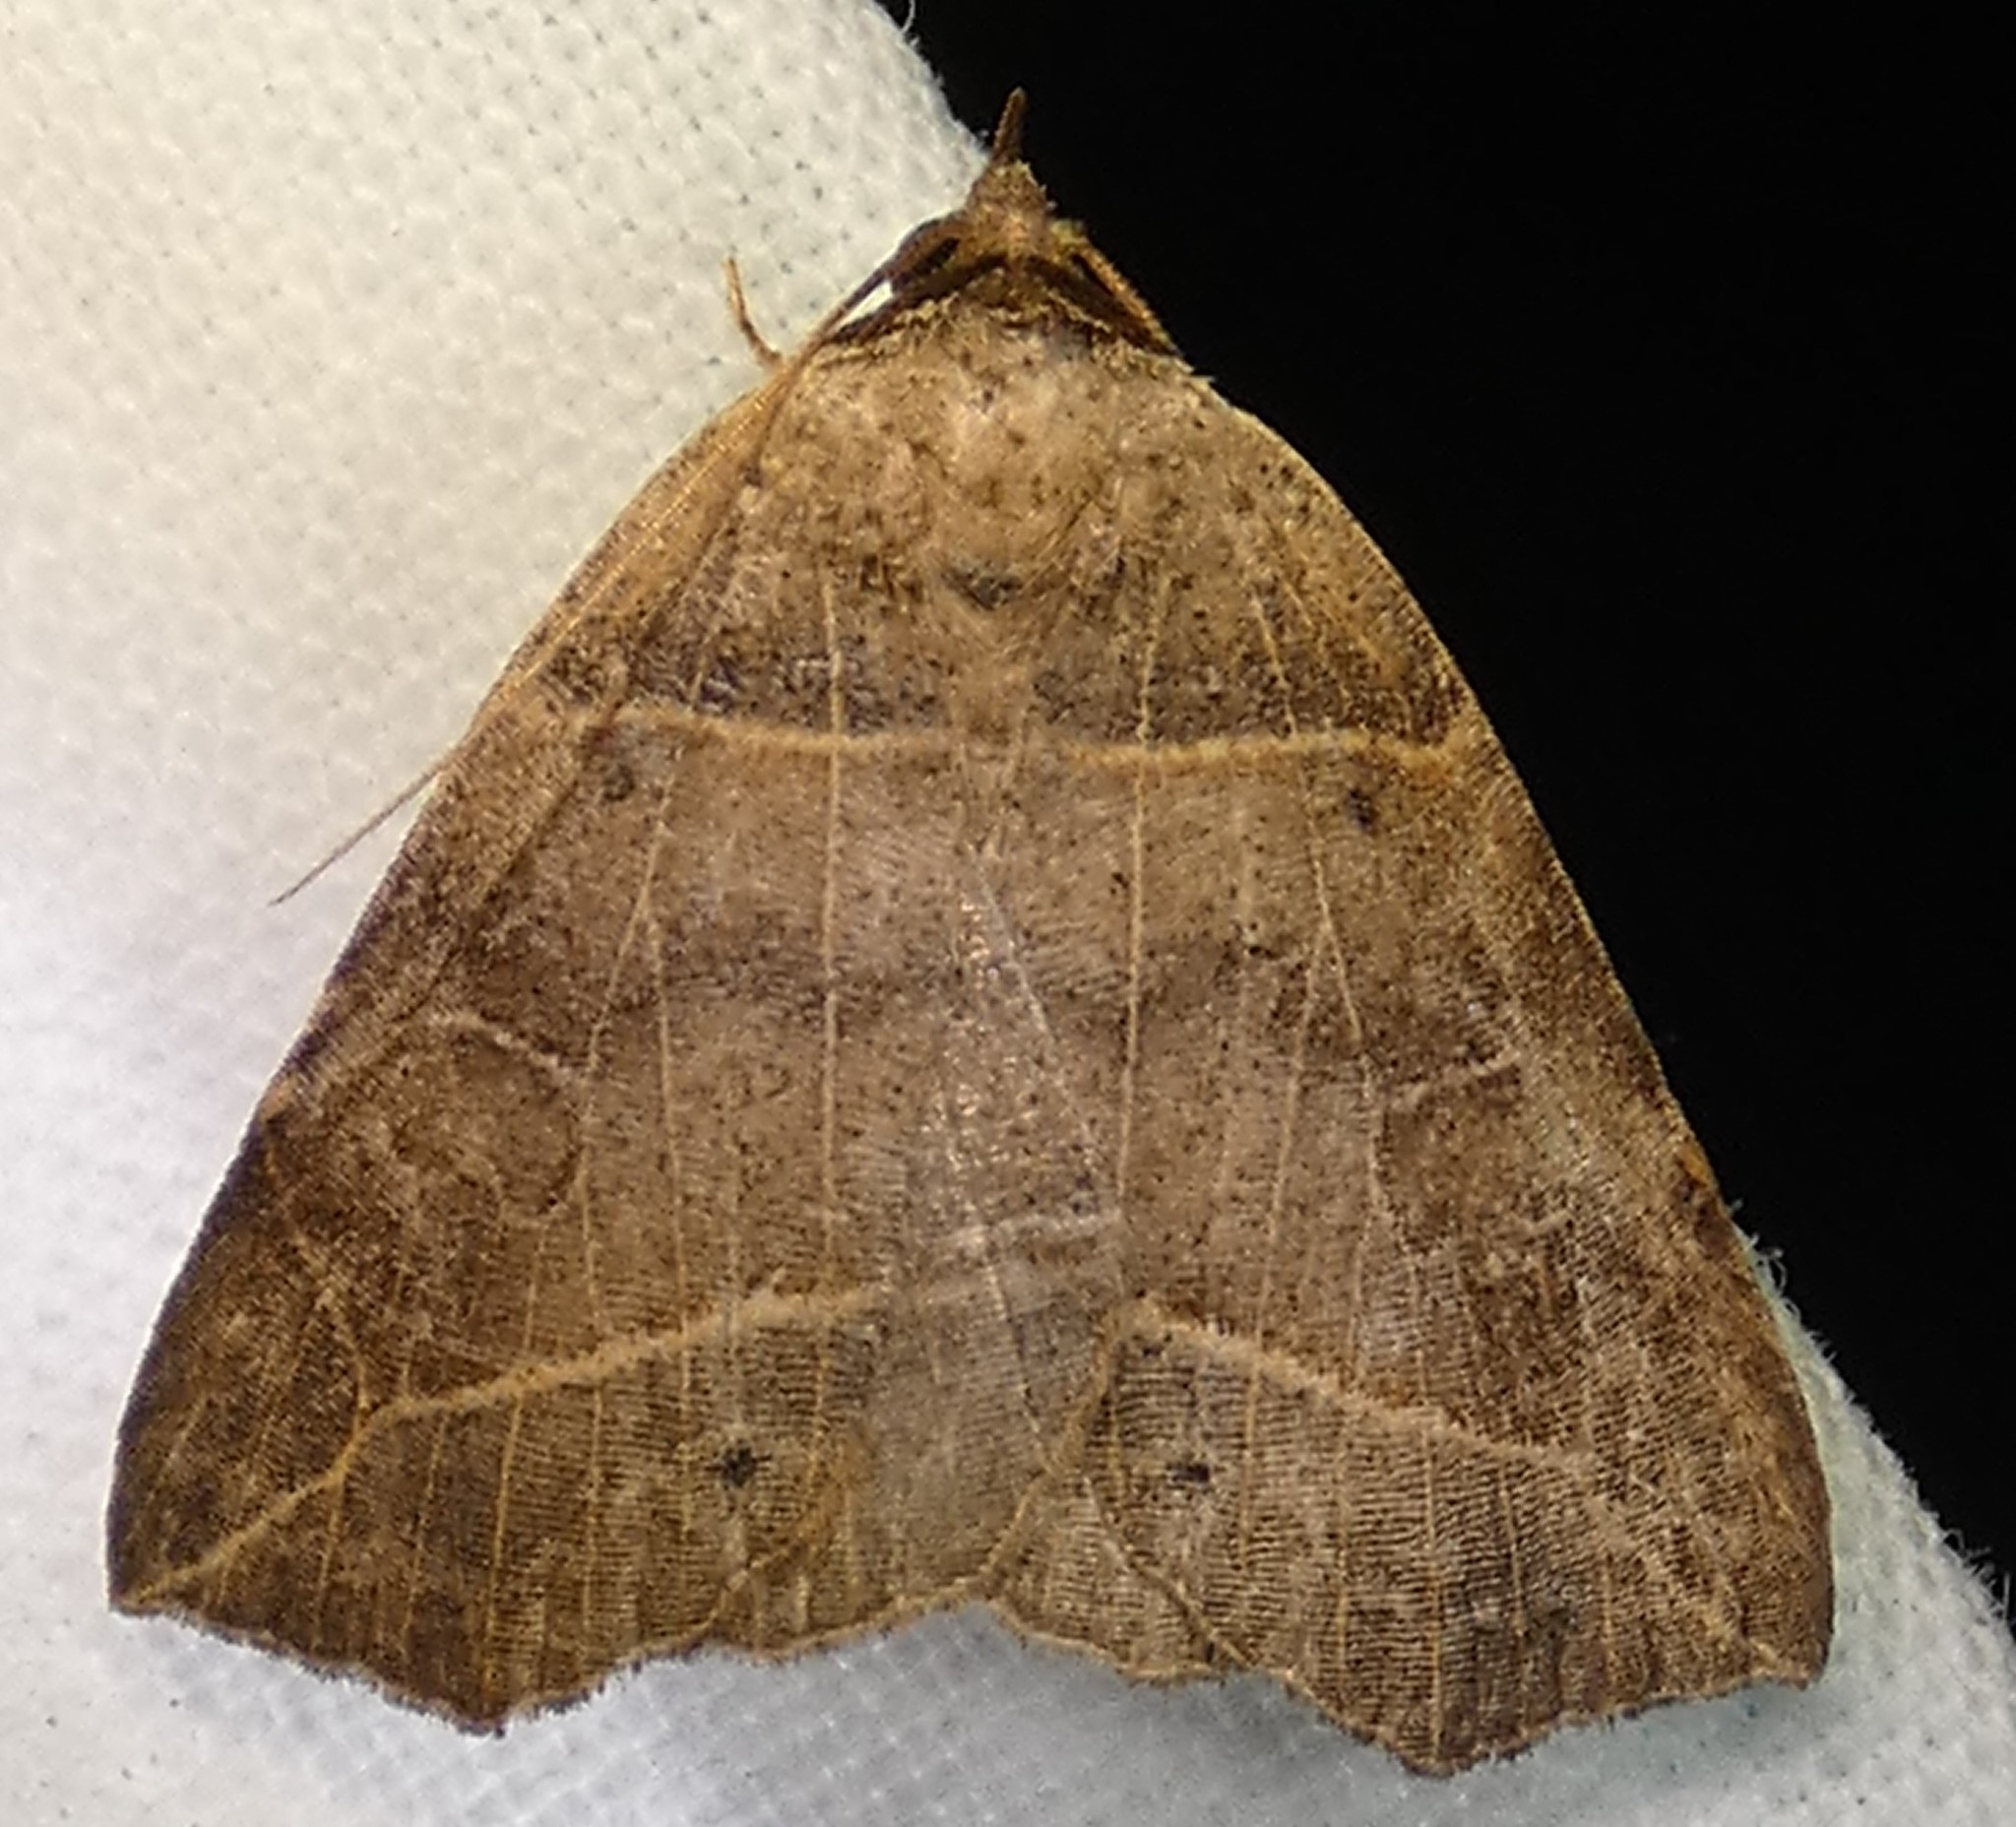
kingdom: Animalia
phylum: Arthropoda
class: Insecta
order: Lepidoptera
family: Erebidae
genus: Isogona
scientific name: Isogona tenuis
